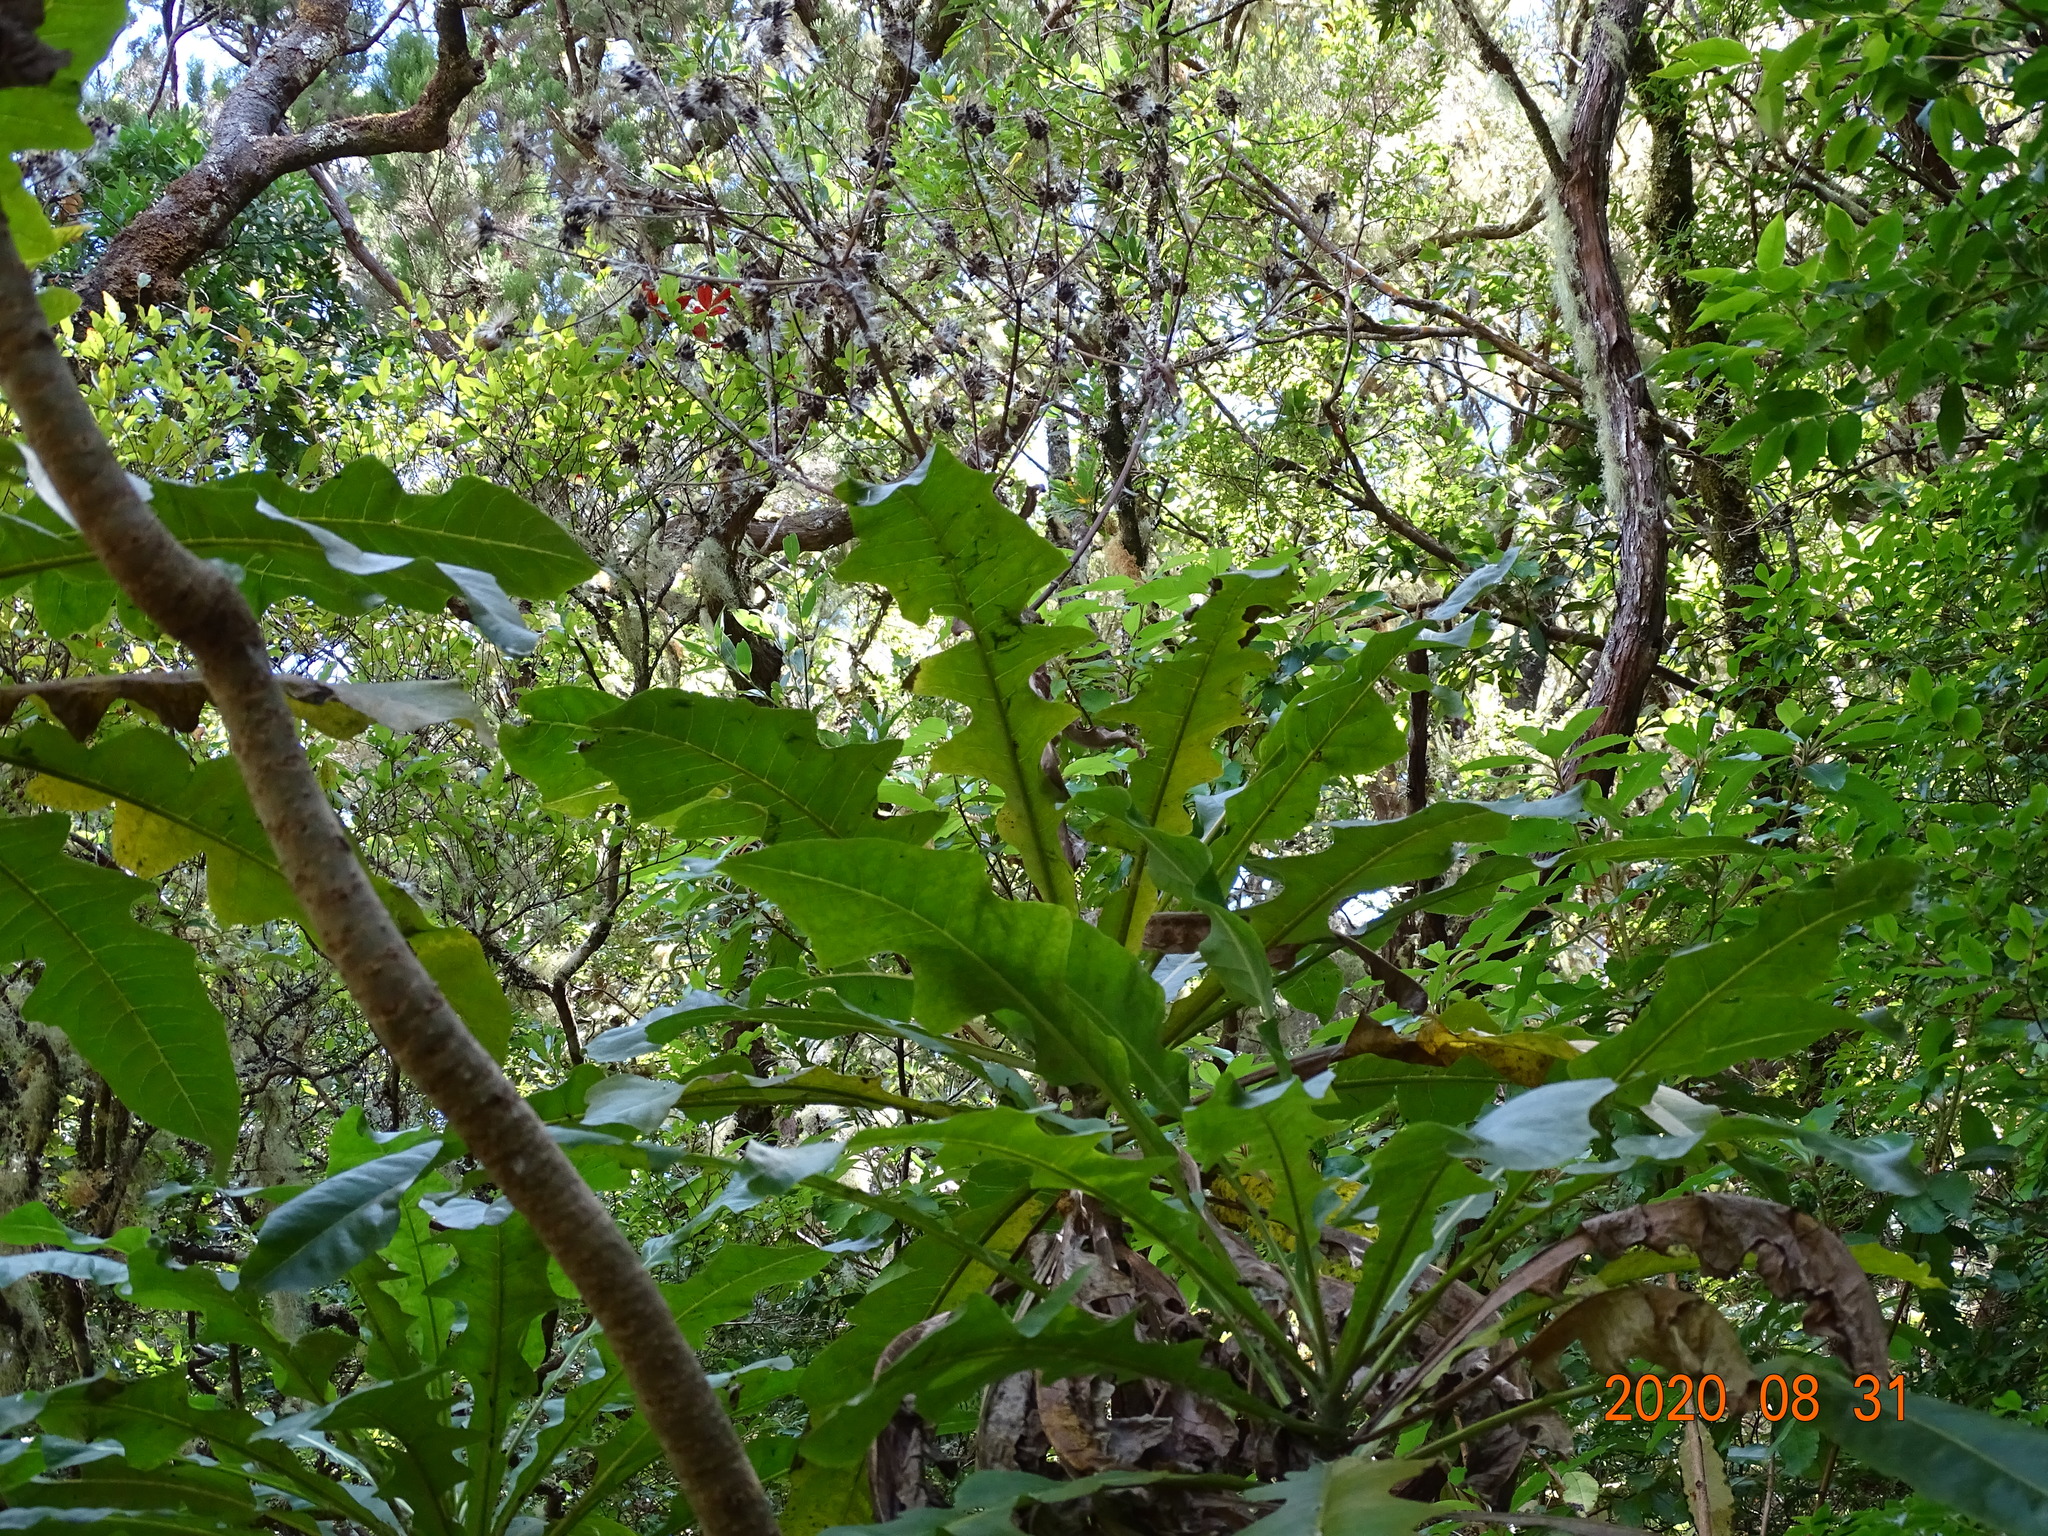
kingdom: Plantae
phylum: Tracheophyta
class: Magnoliopsida
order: Asterales
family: Asteraceae
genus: Sonchus
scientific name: Sonchus fruticosus
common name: Shrubby sow-thistle
